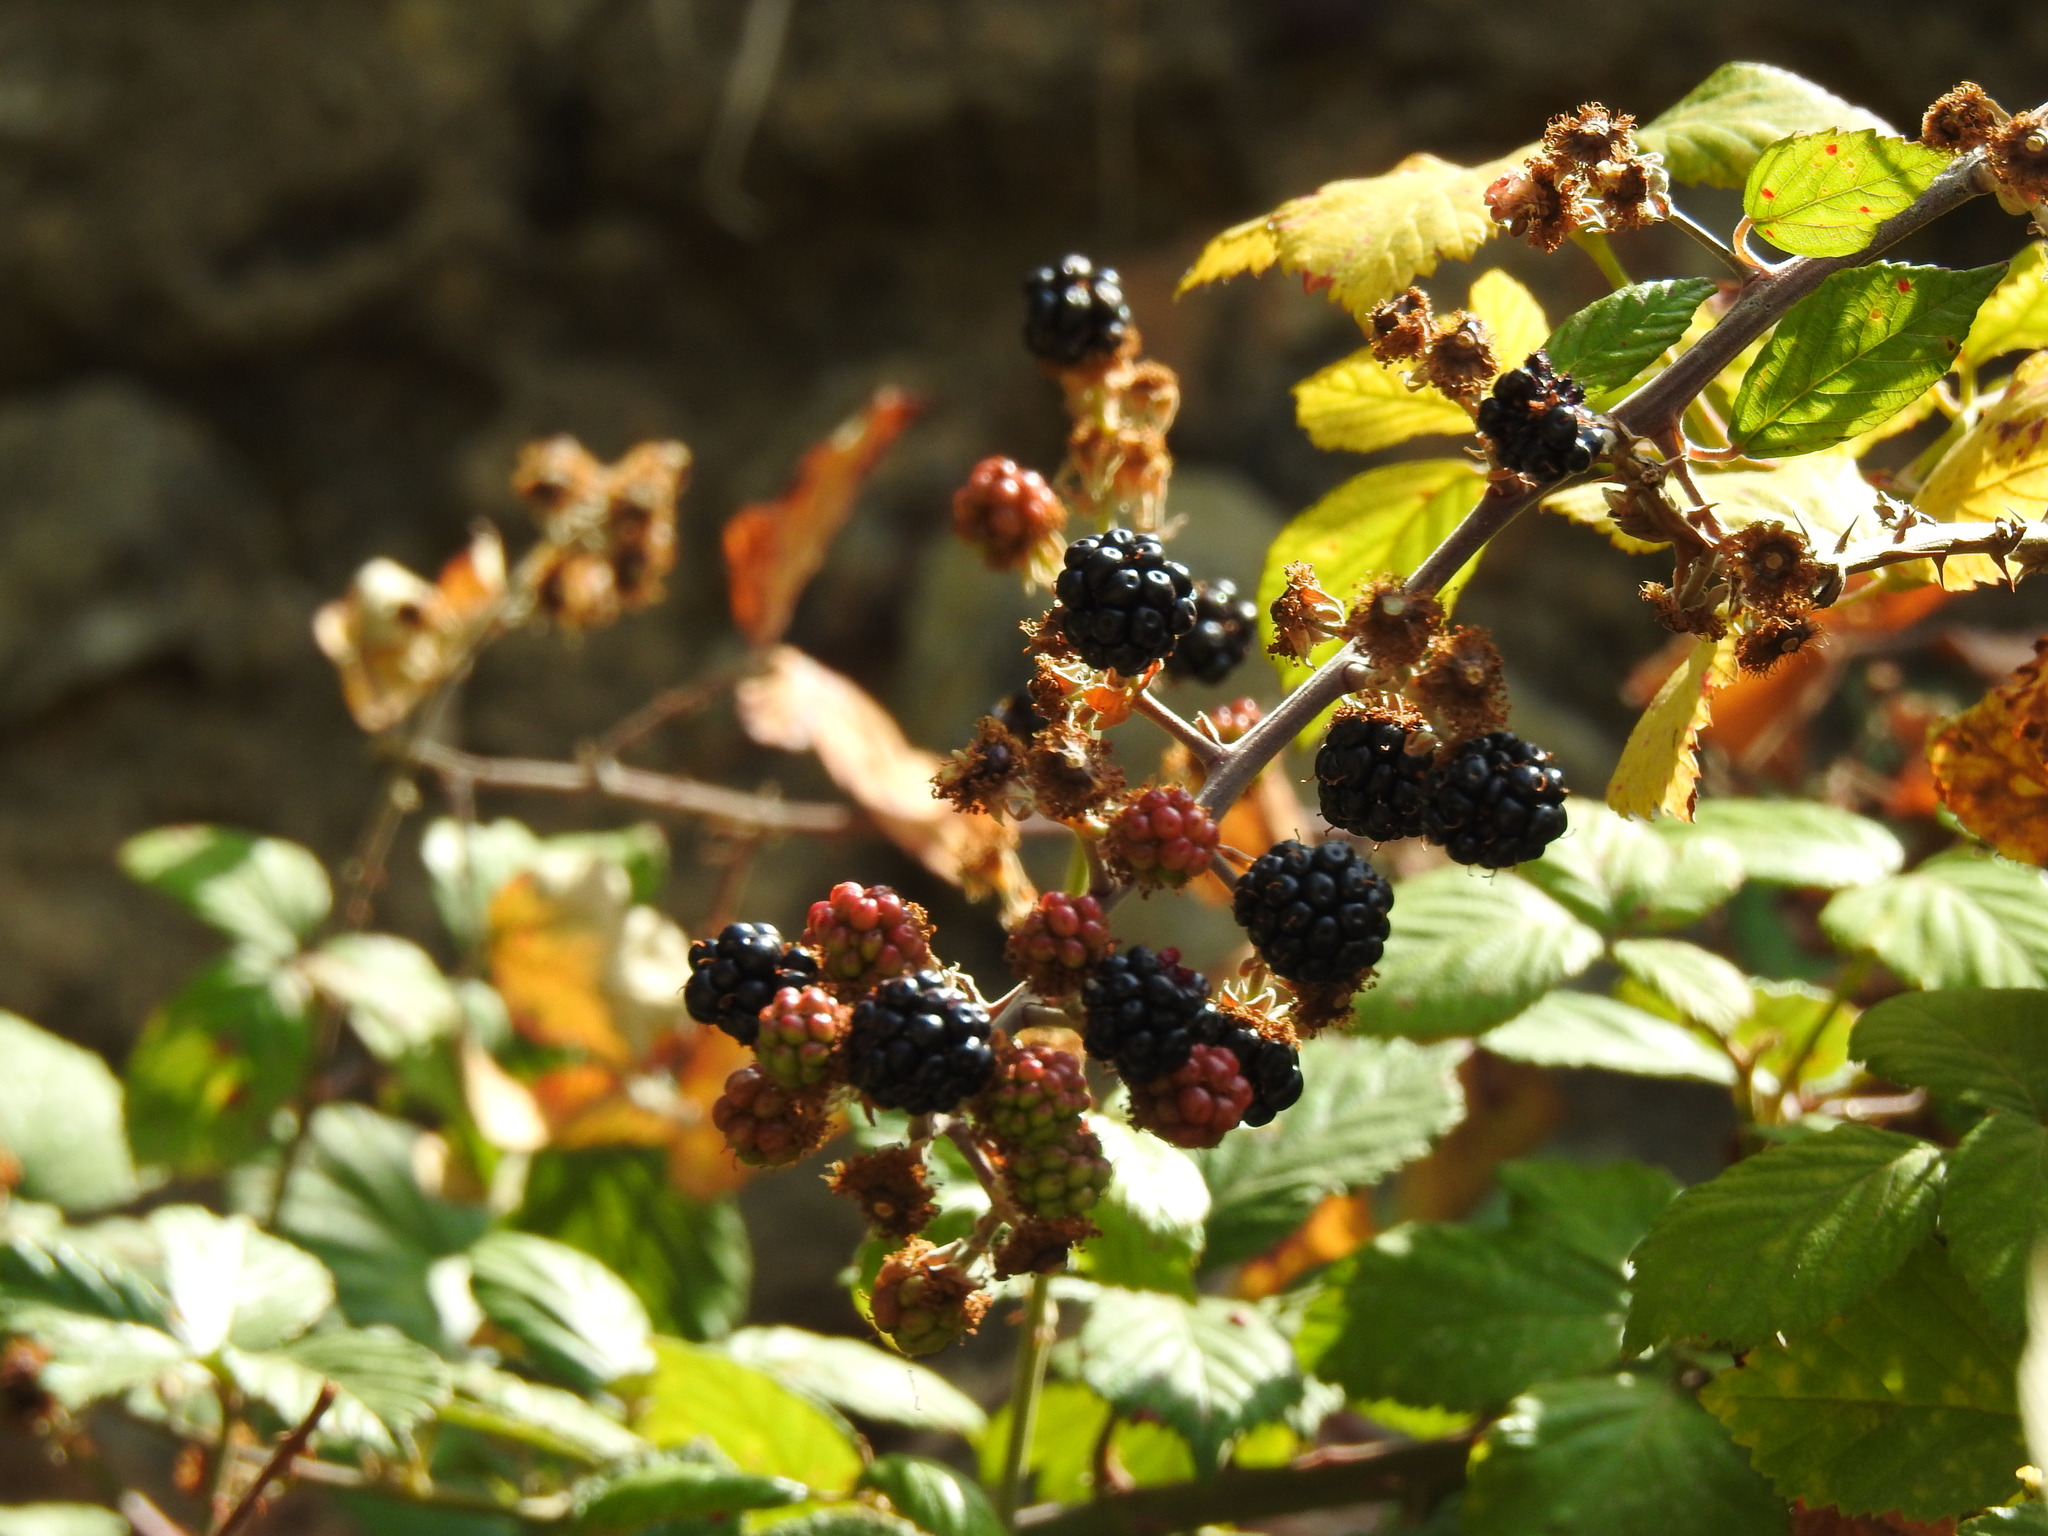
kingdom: Plantae
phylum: Tracheophyta
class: Magnoliopsida
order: Rosales
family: Rosaceae
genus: Rubus
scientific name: Rubus ulmifolius
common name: Elmleaf blackberry
